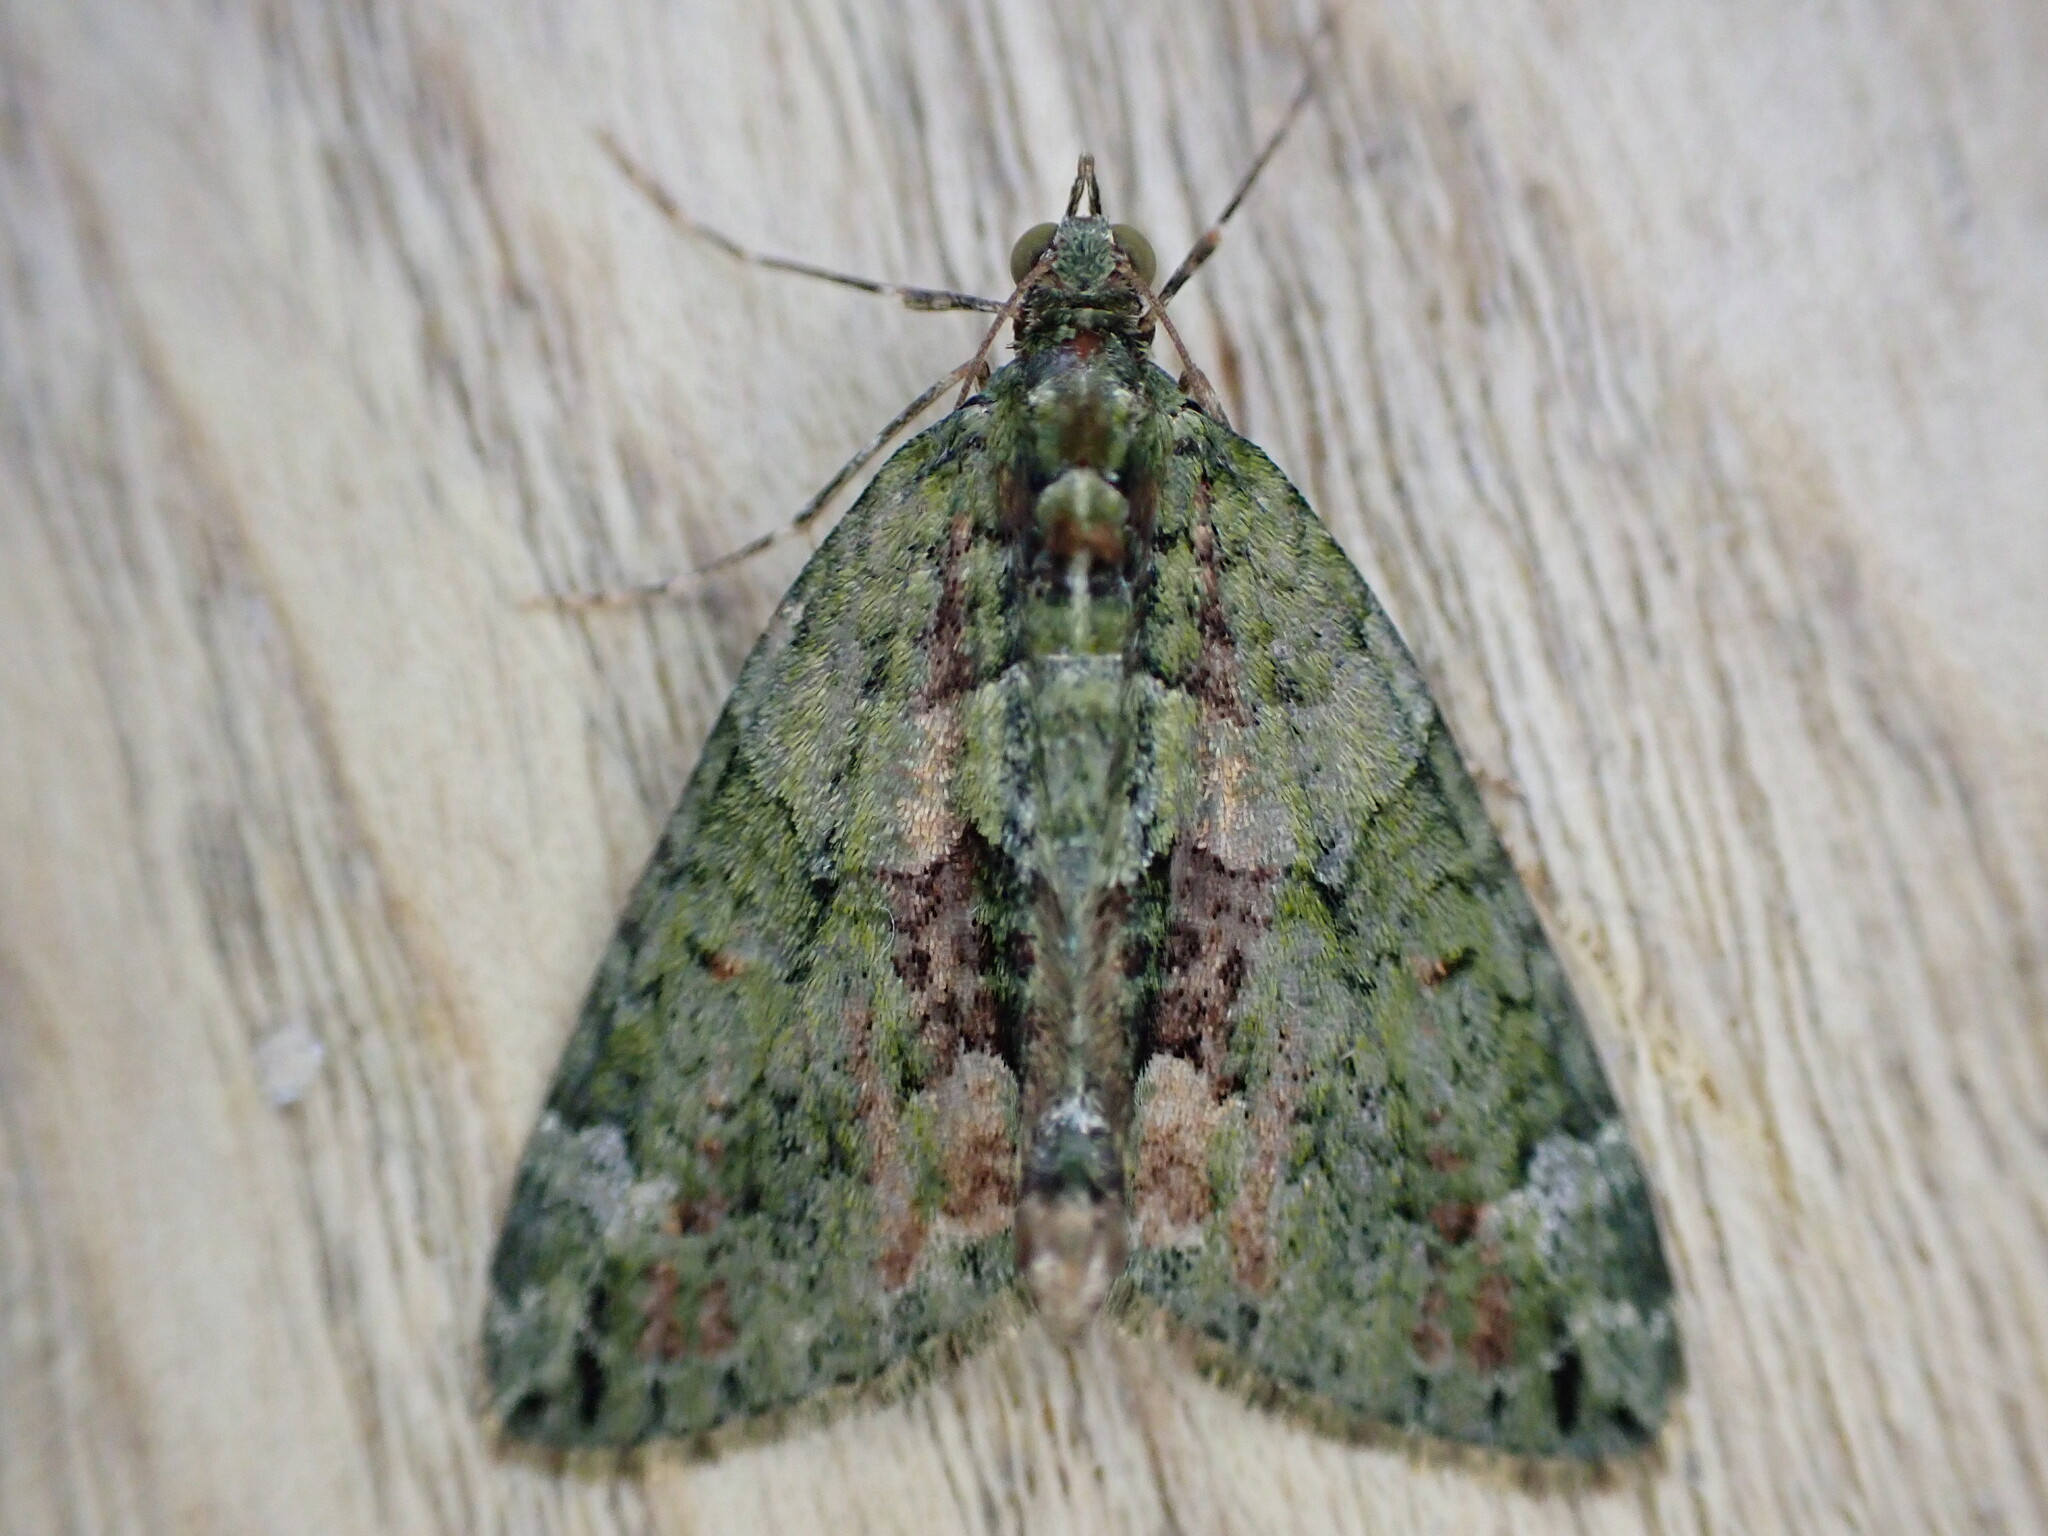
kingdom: Animalia
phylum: Arthropoda
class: Insecta
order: Lepidoptera
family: Geometridae
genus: Chloroclysta
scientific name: Chloroclysta siterata
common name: Red-green carpet
